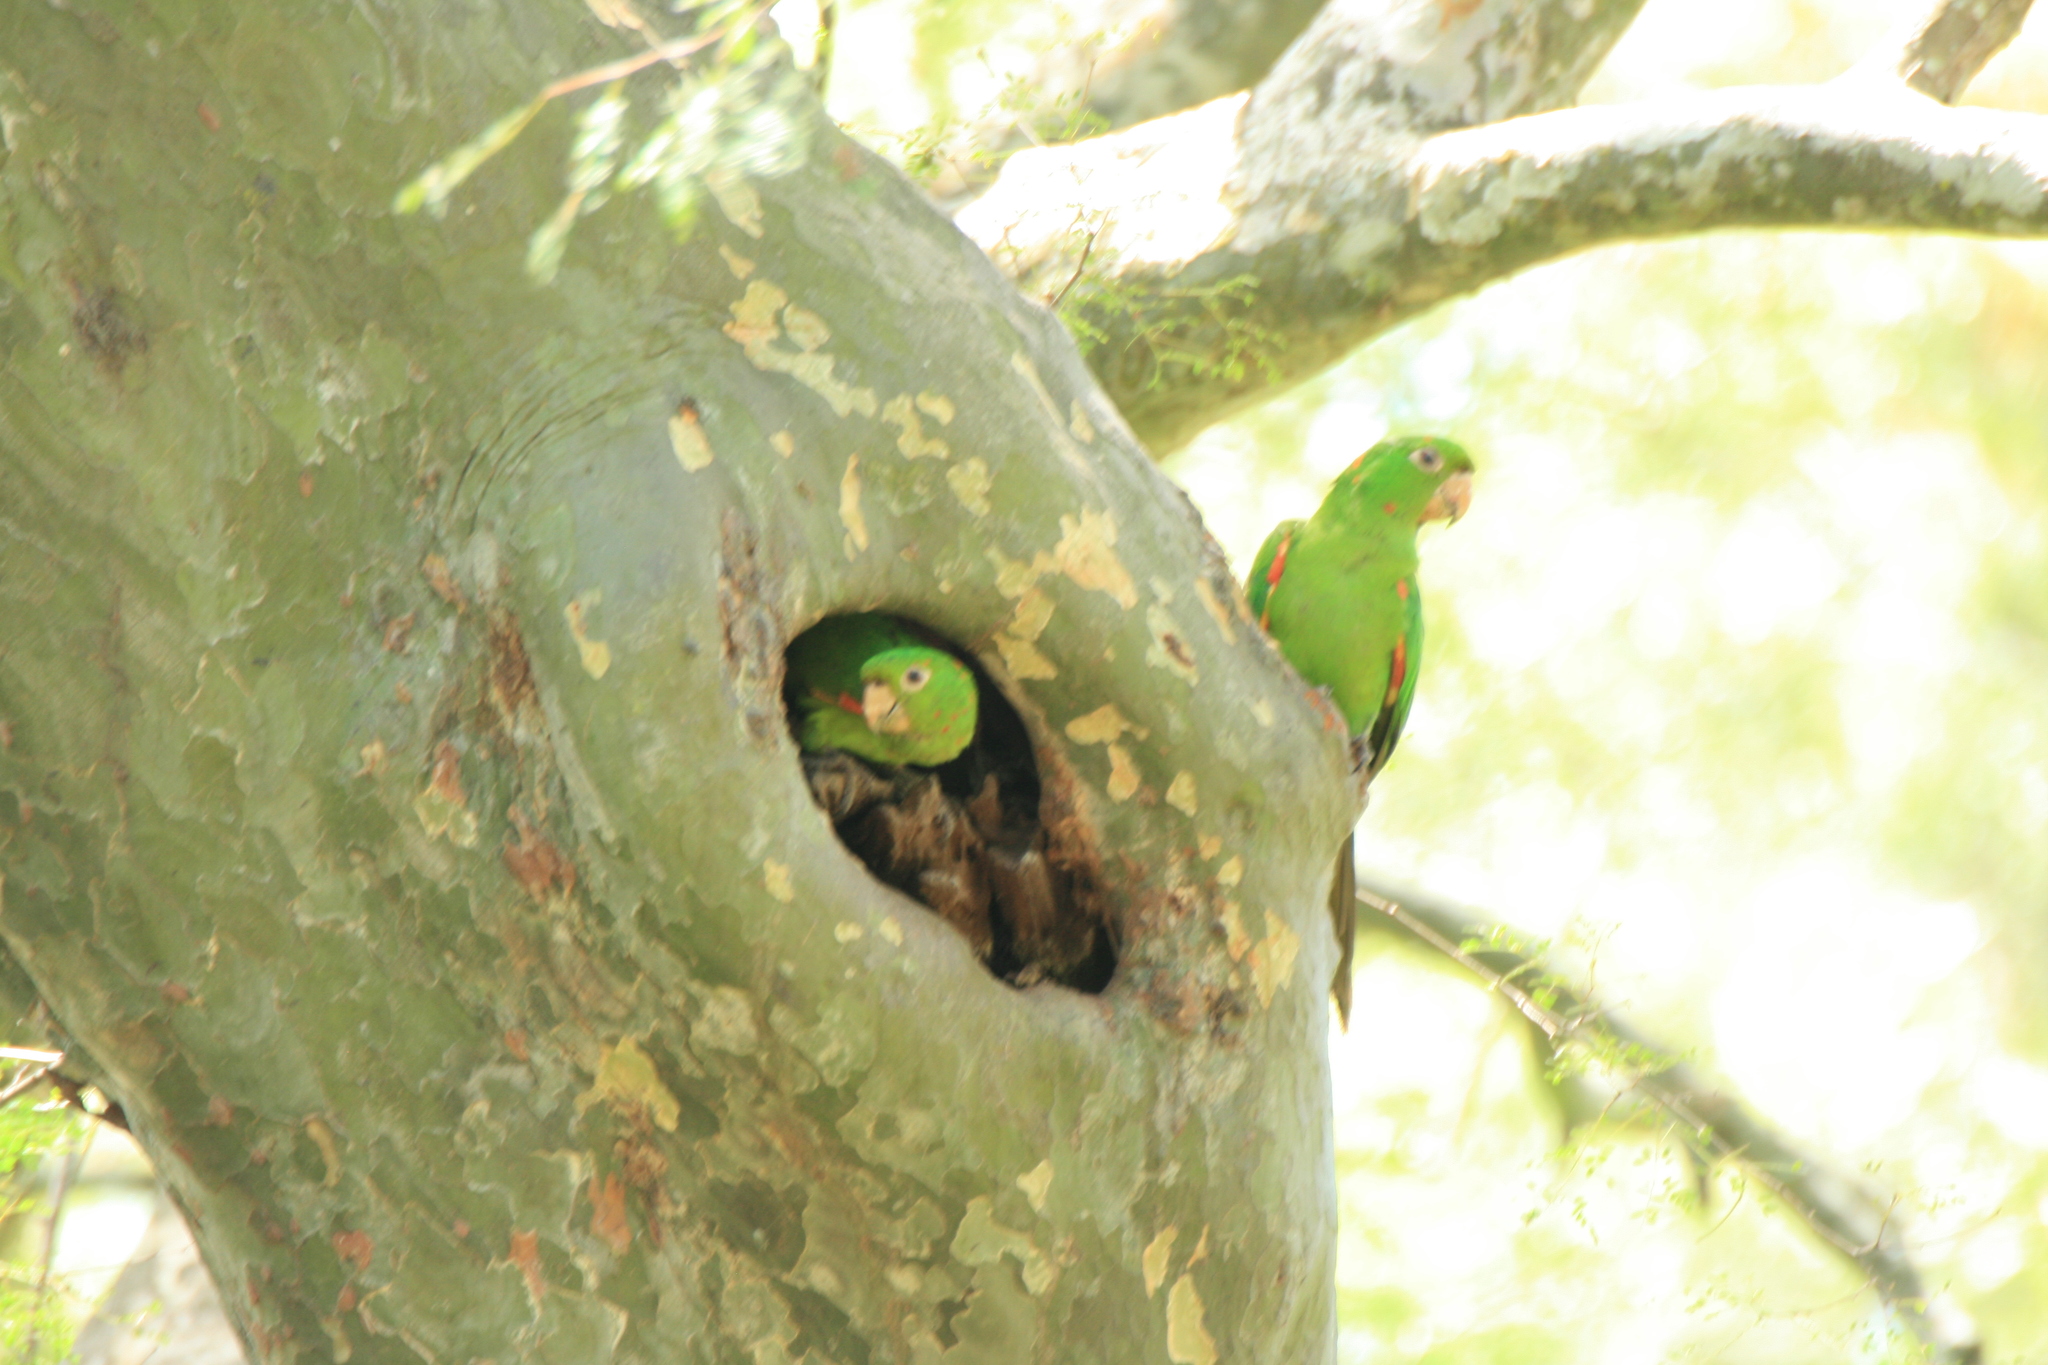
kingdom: Animalia
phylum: Chordata
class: Aves
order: Psittaciformes
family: Psittacidae
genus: Aratinga
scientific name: Aratinga leucophthalma
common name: White-eyed parakeet
